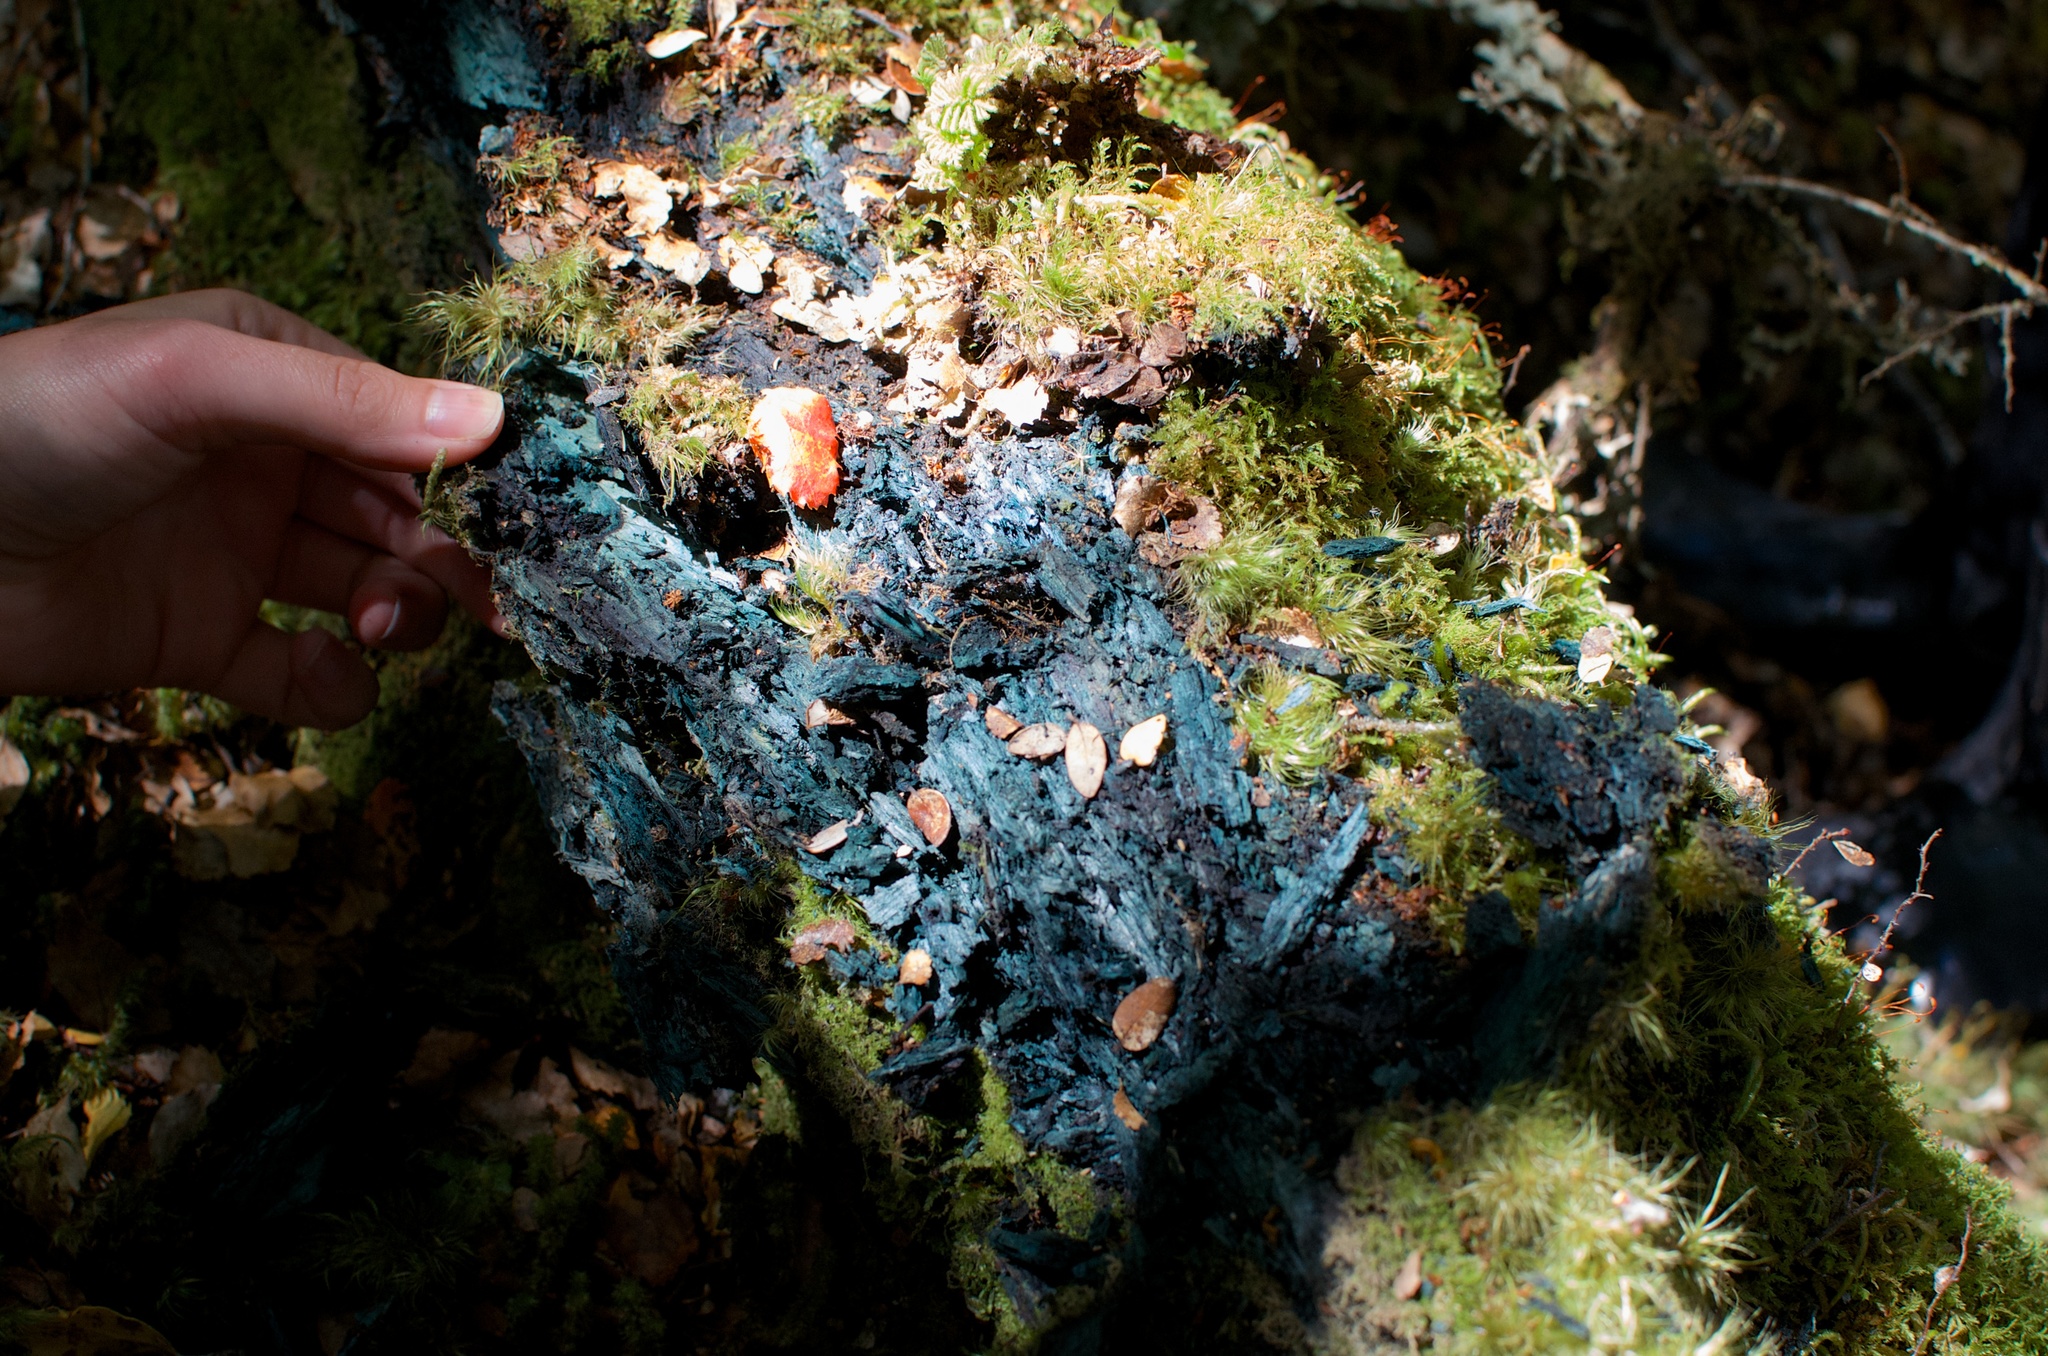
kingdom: Fungi
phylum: Ascomycota
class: Leotiomycetes
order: Helotiales
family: Chlorociboriaceae
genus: Chlorociboria
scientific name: Chlorociboria
